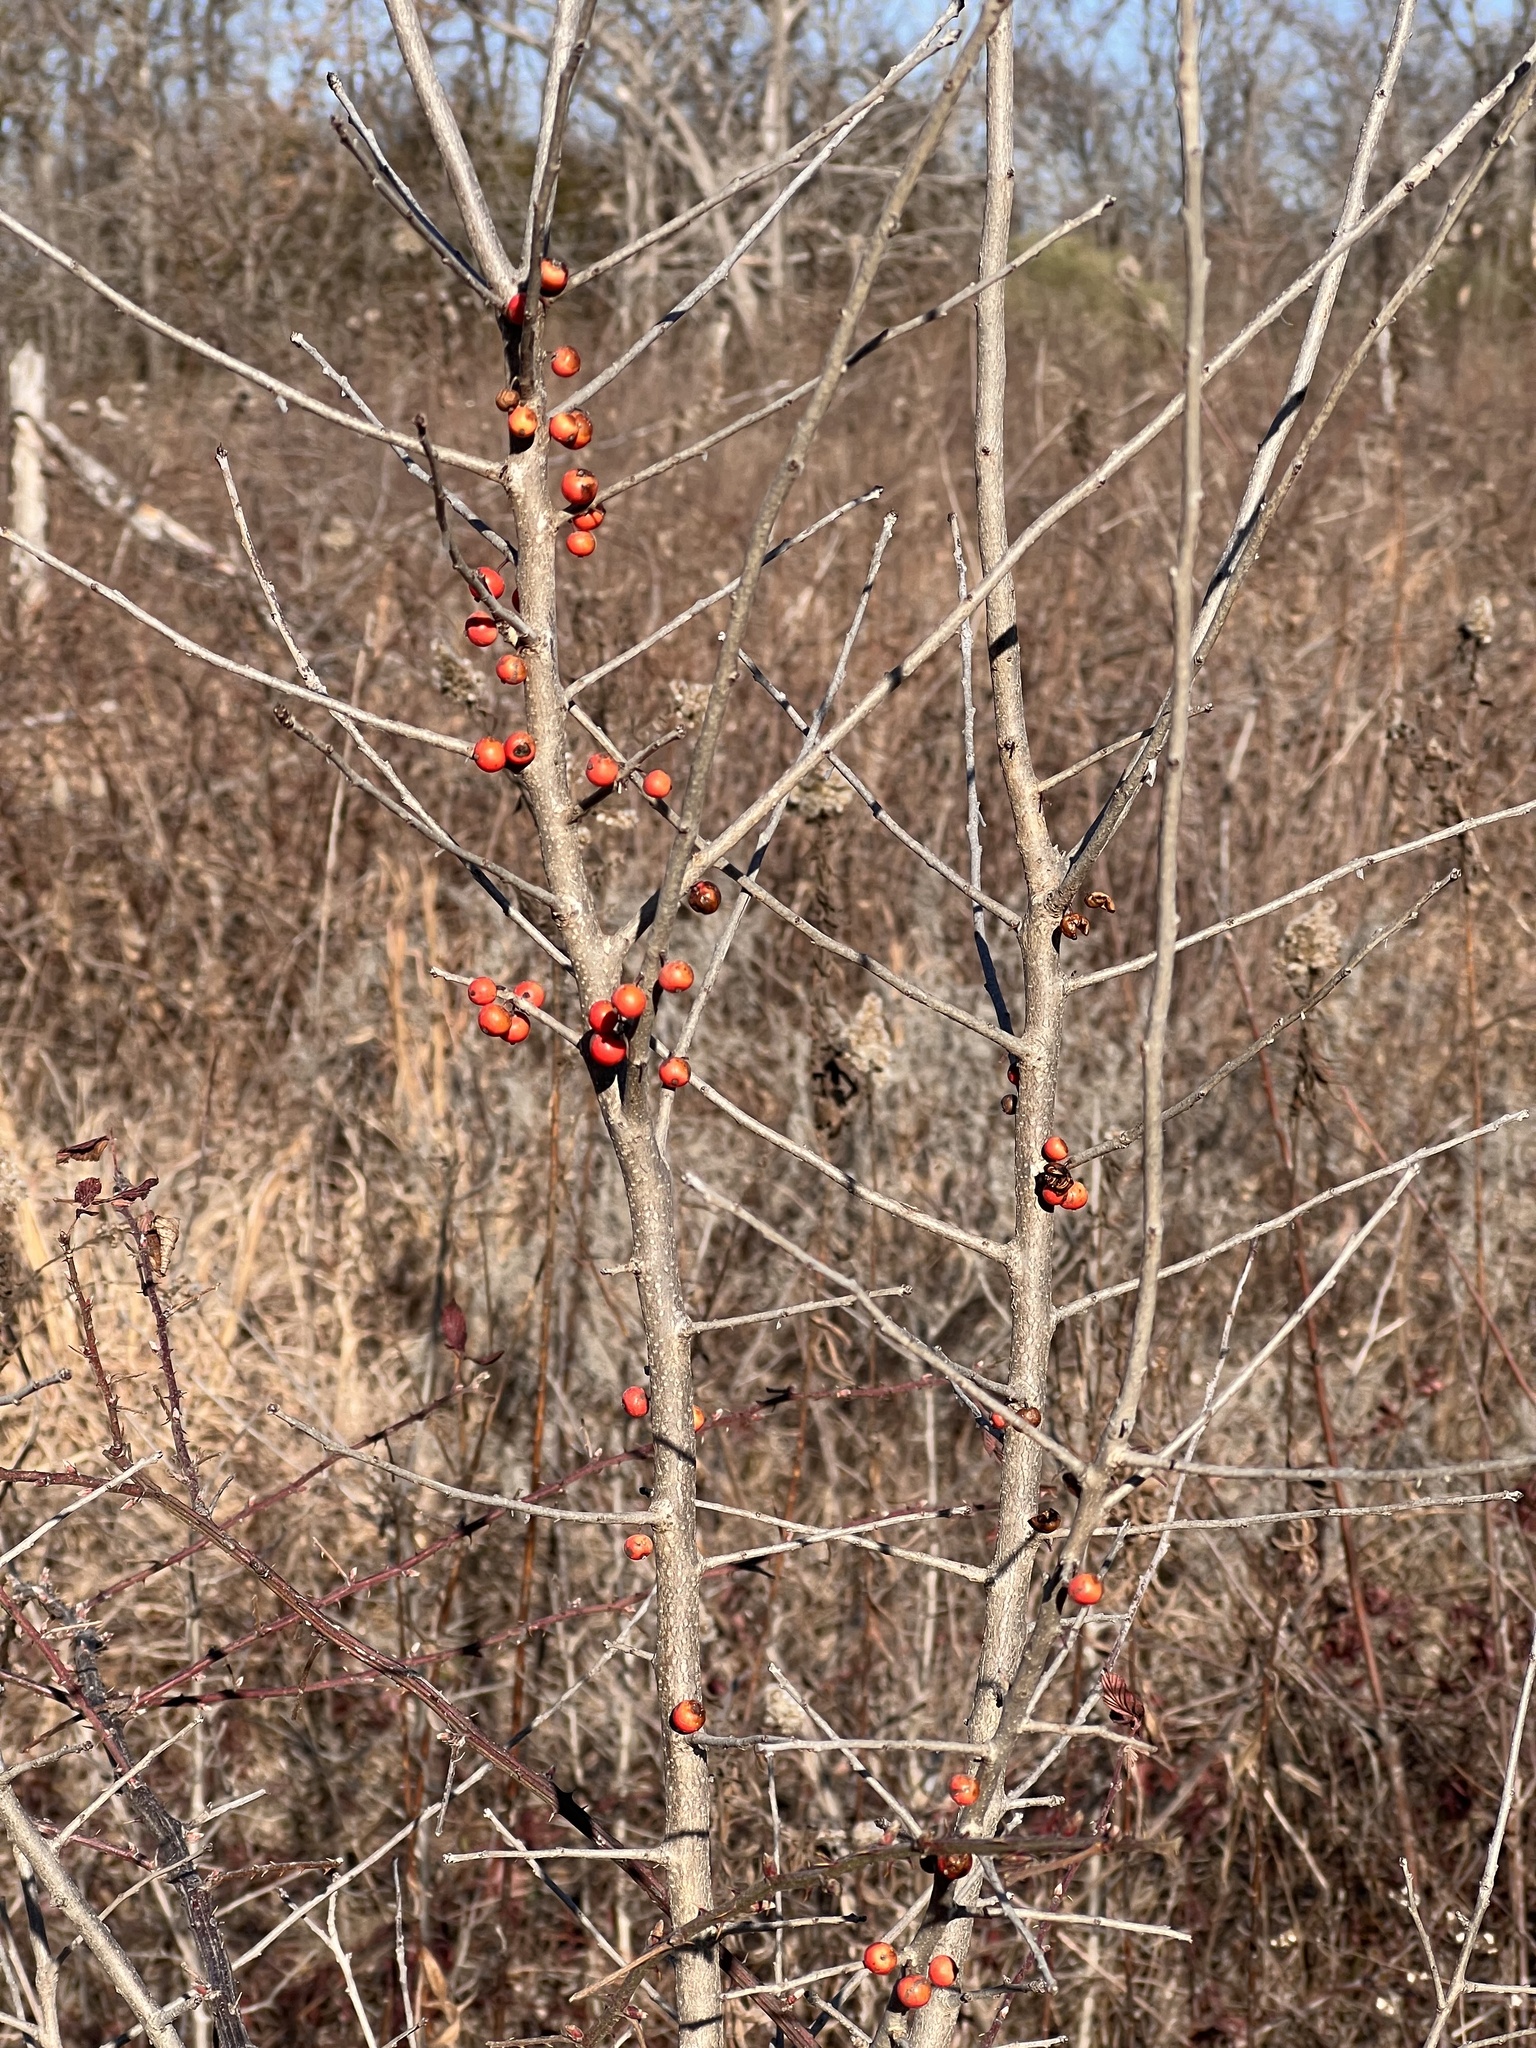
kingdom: Plantae
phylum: Tracheophyta
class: Magnoliopsida
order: Aquifoliales
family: Aquifoliaceae
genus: Ilex
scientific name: Ilex decidua
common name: Possum-haw
